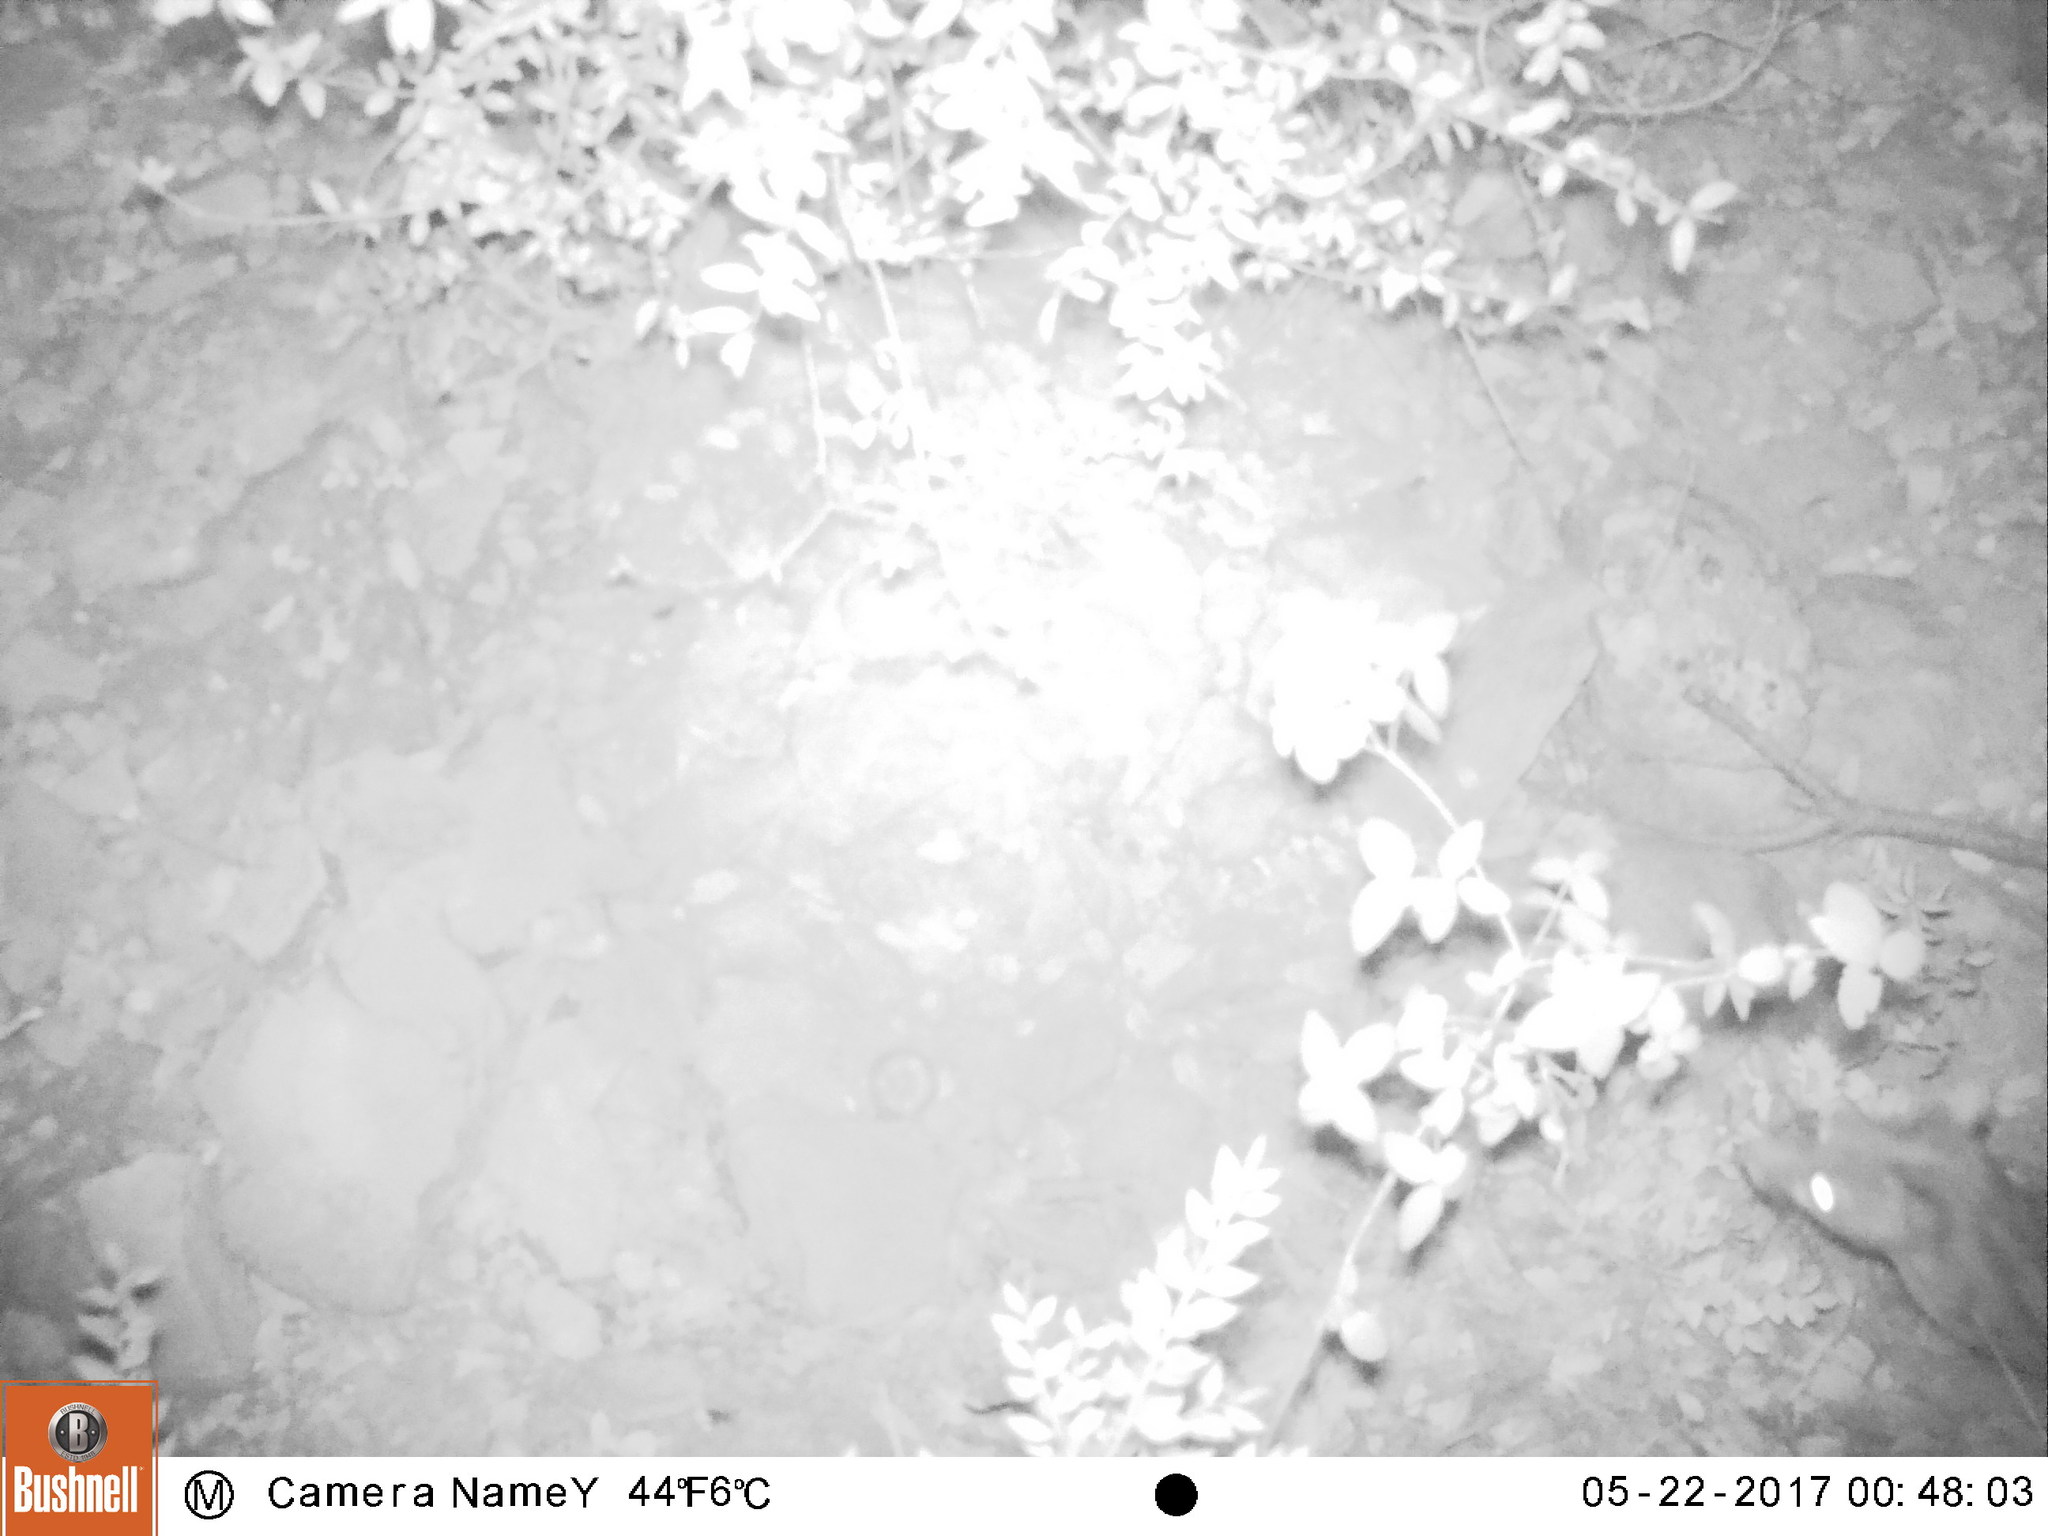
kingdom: Animalia
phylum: Chordata
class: Mammalia
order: Carnivora
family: Viverridae
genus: Genetta
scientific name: Genetta genetta
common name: Common genet
